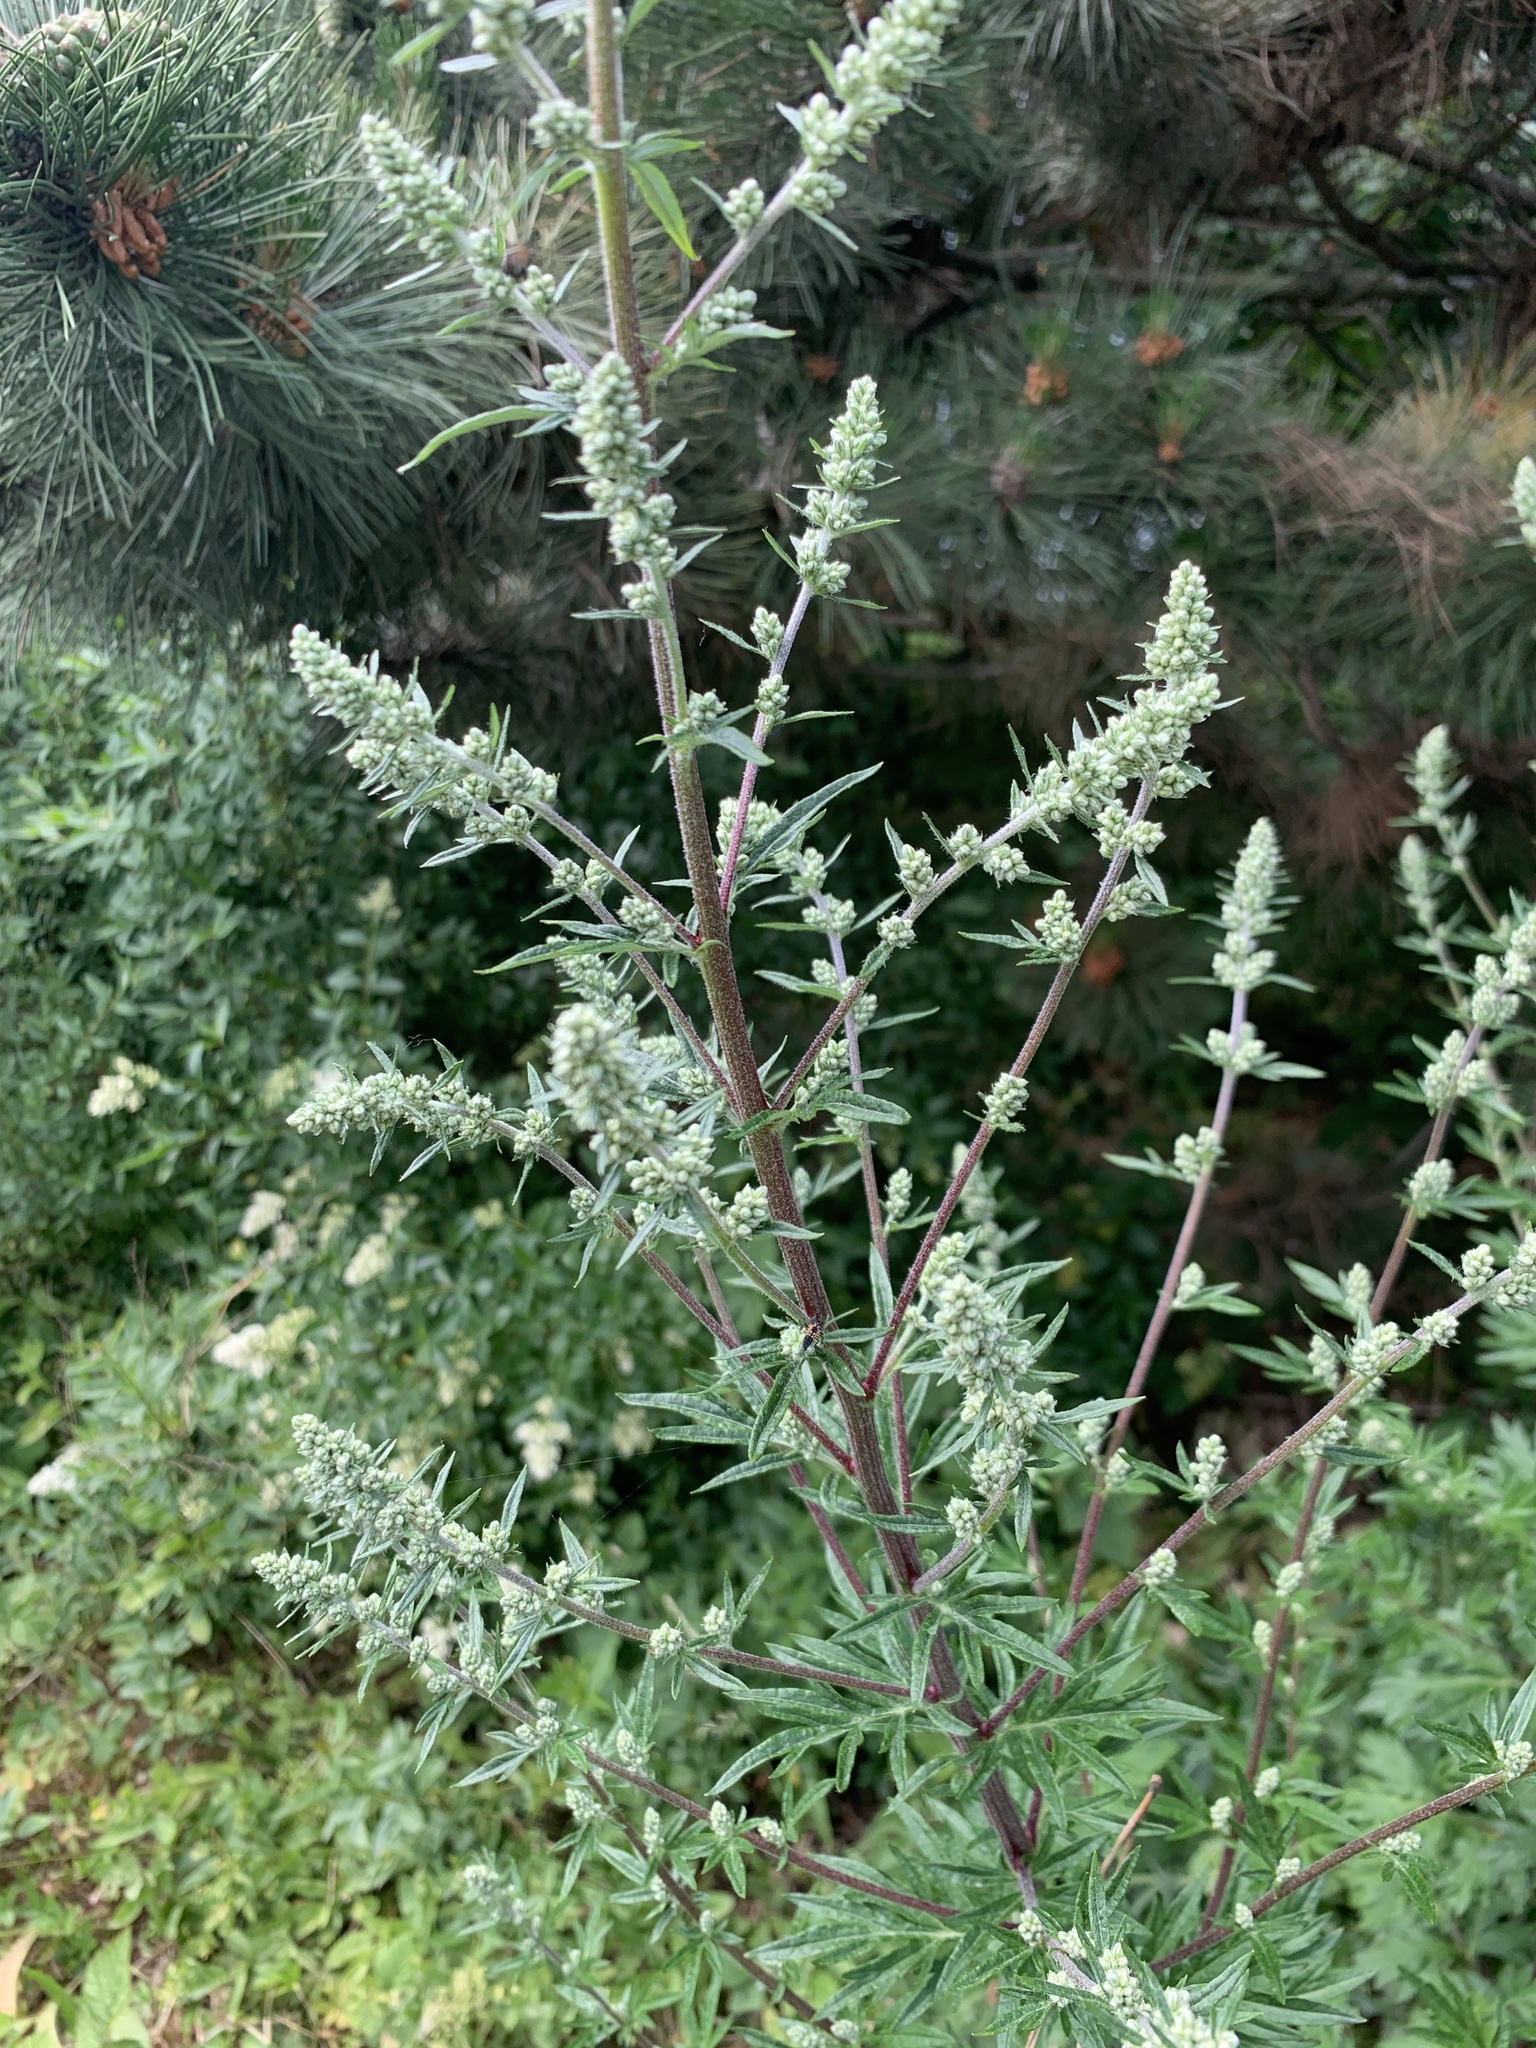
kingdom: Plantae
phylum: Tracheophyta
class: Magnoliopsida
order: Asterales
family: Asteraceae
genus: Artemisia
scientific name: Artemisia vulgaris
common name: Mugwort
